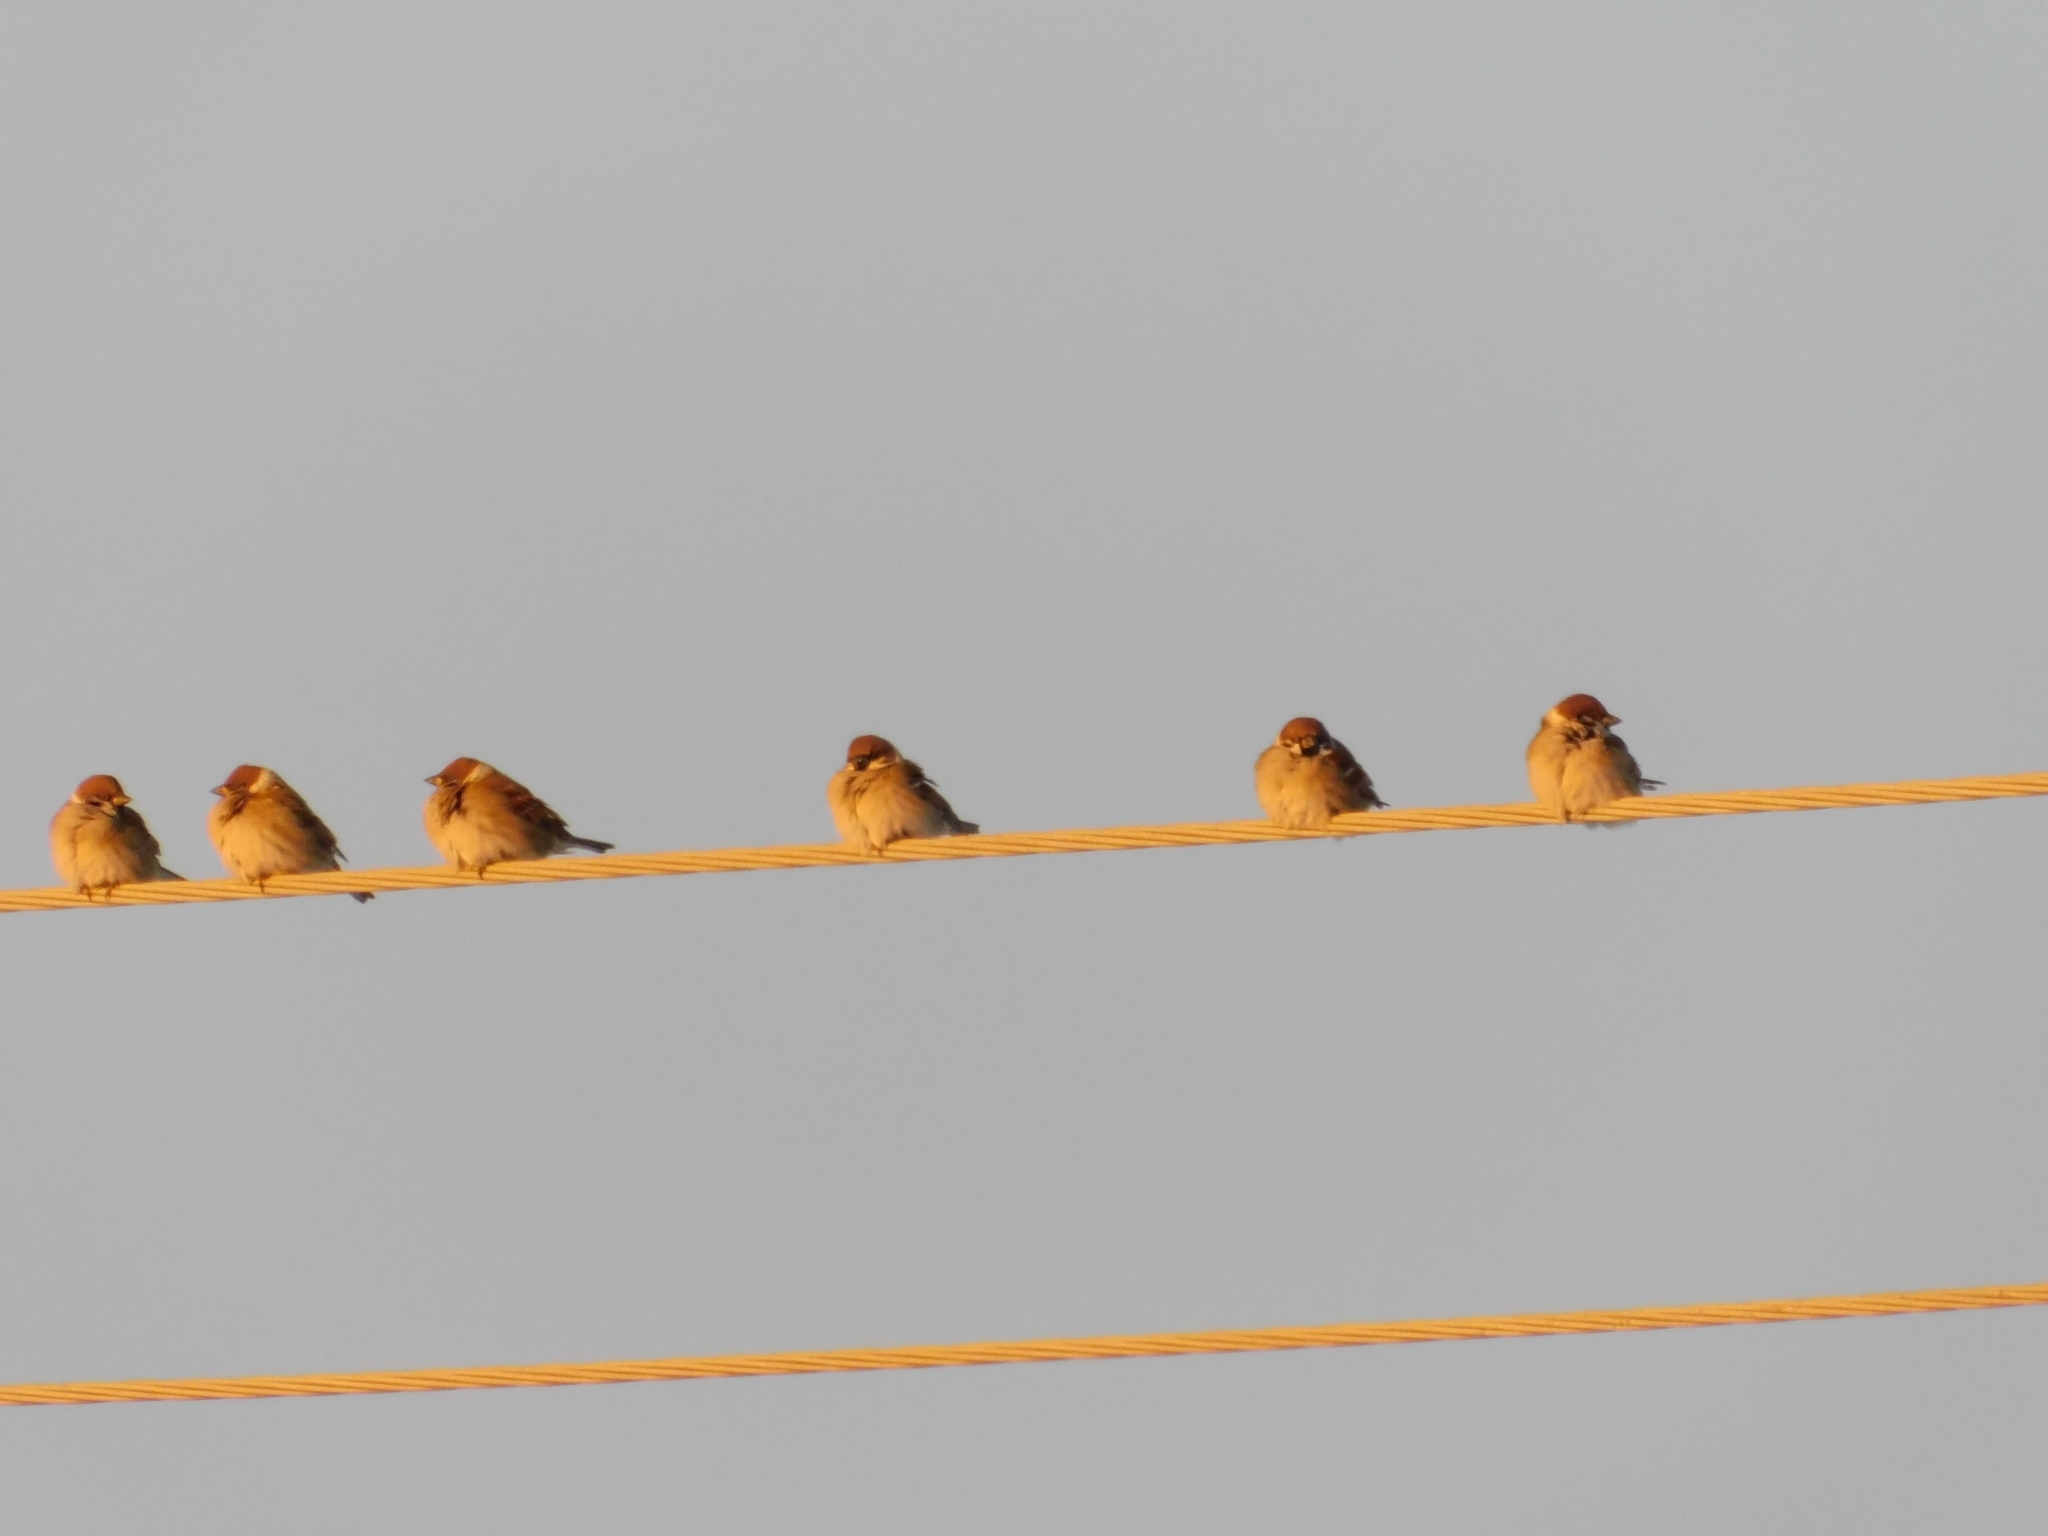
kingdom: Animalia
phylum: Chordata
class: Aves
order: Passeriformes
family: Passeridae
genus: Passer
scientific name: Passer montanus
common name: Eurasian tree sparrow
